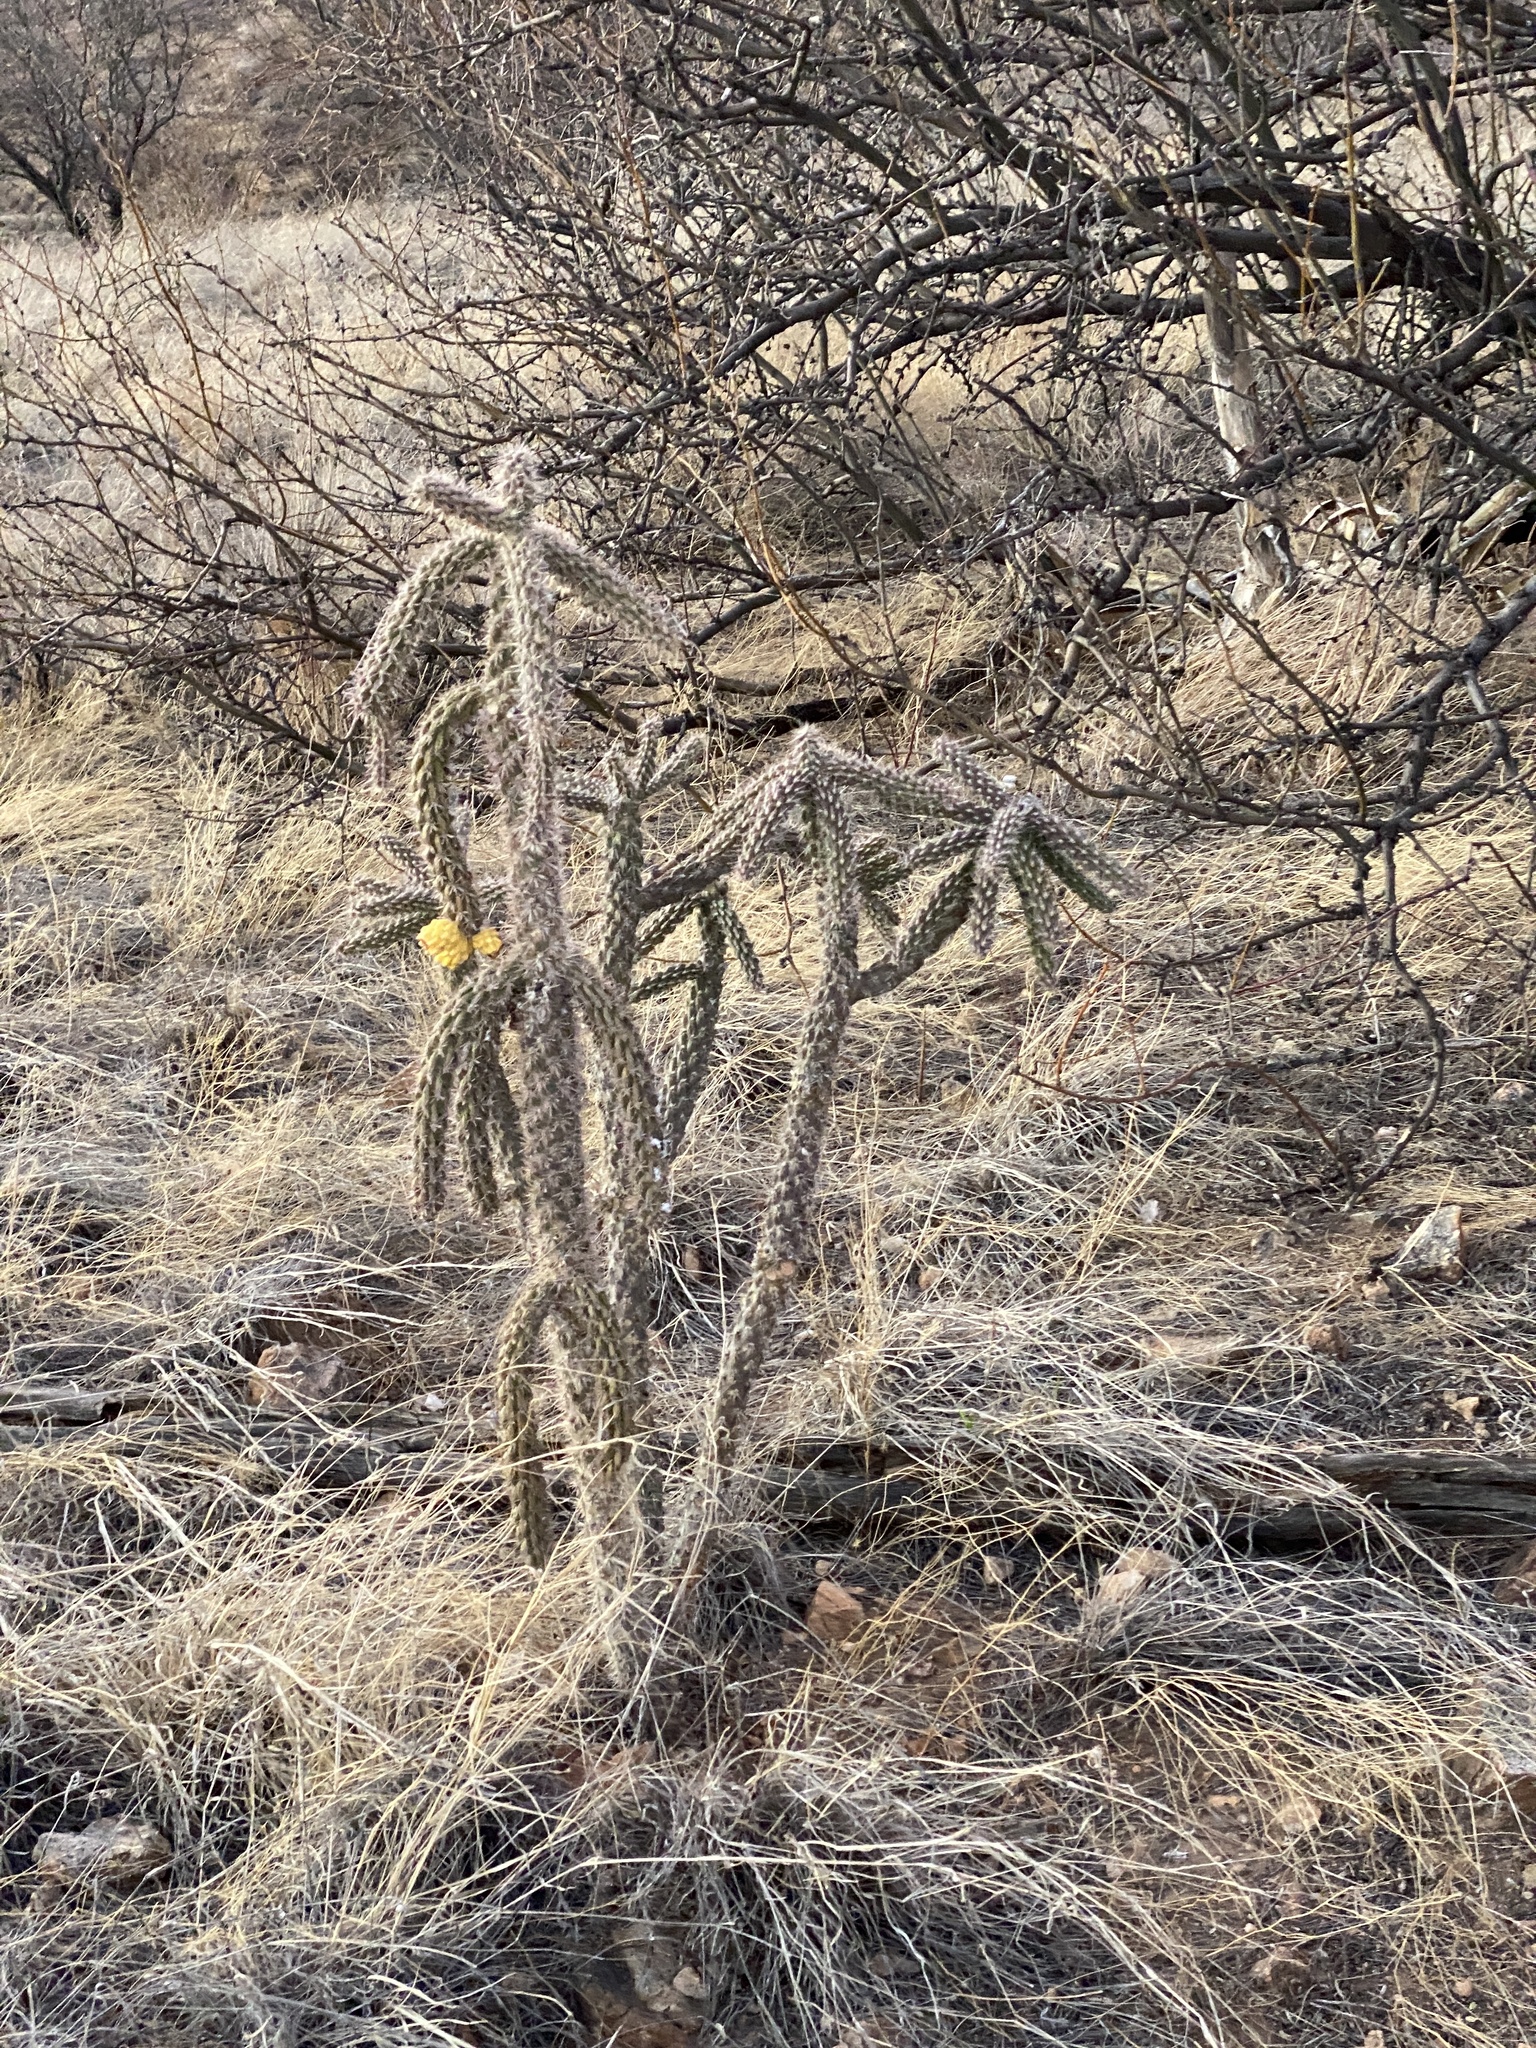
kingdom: Plantae
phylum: Tracheophyta
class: Magnoliopsida
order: Caryophyllales
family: Cactaceae
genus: Cylindropuntia
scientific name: Cylindropuntia imbricata
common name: Candelabrum cactus
